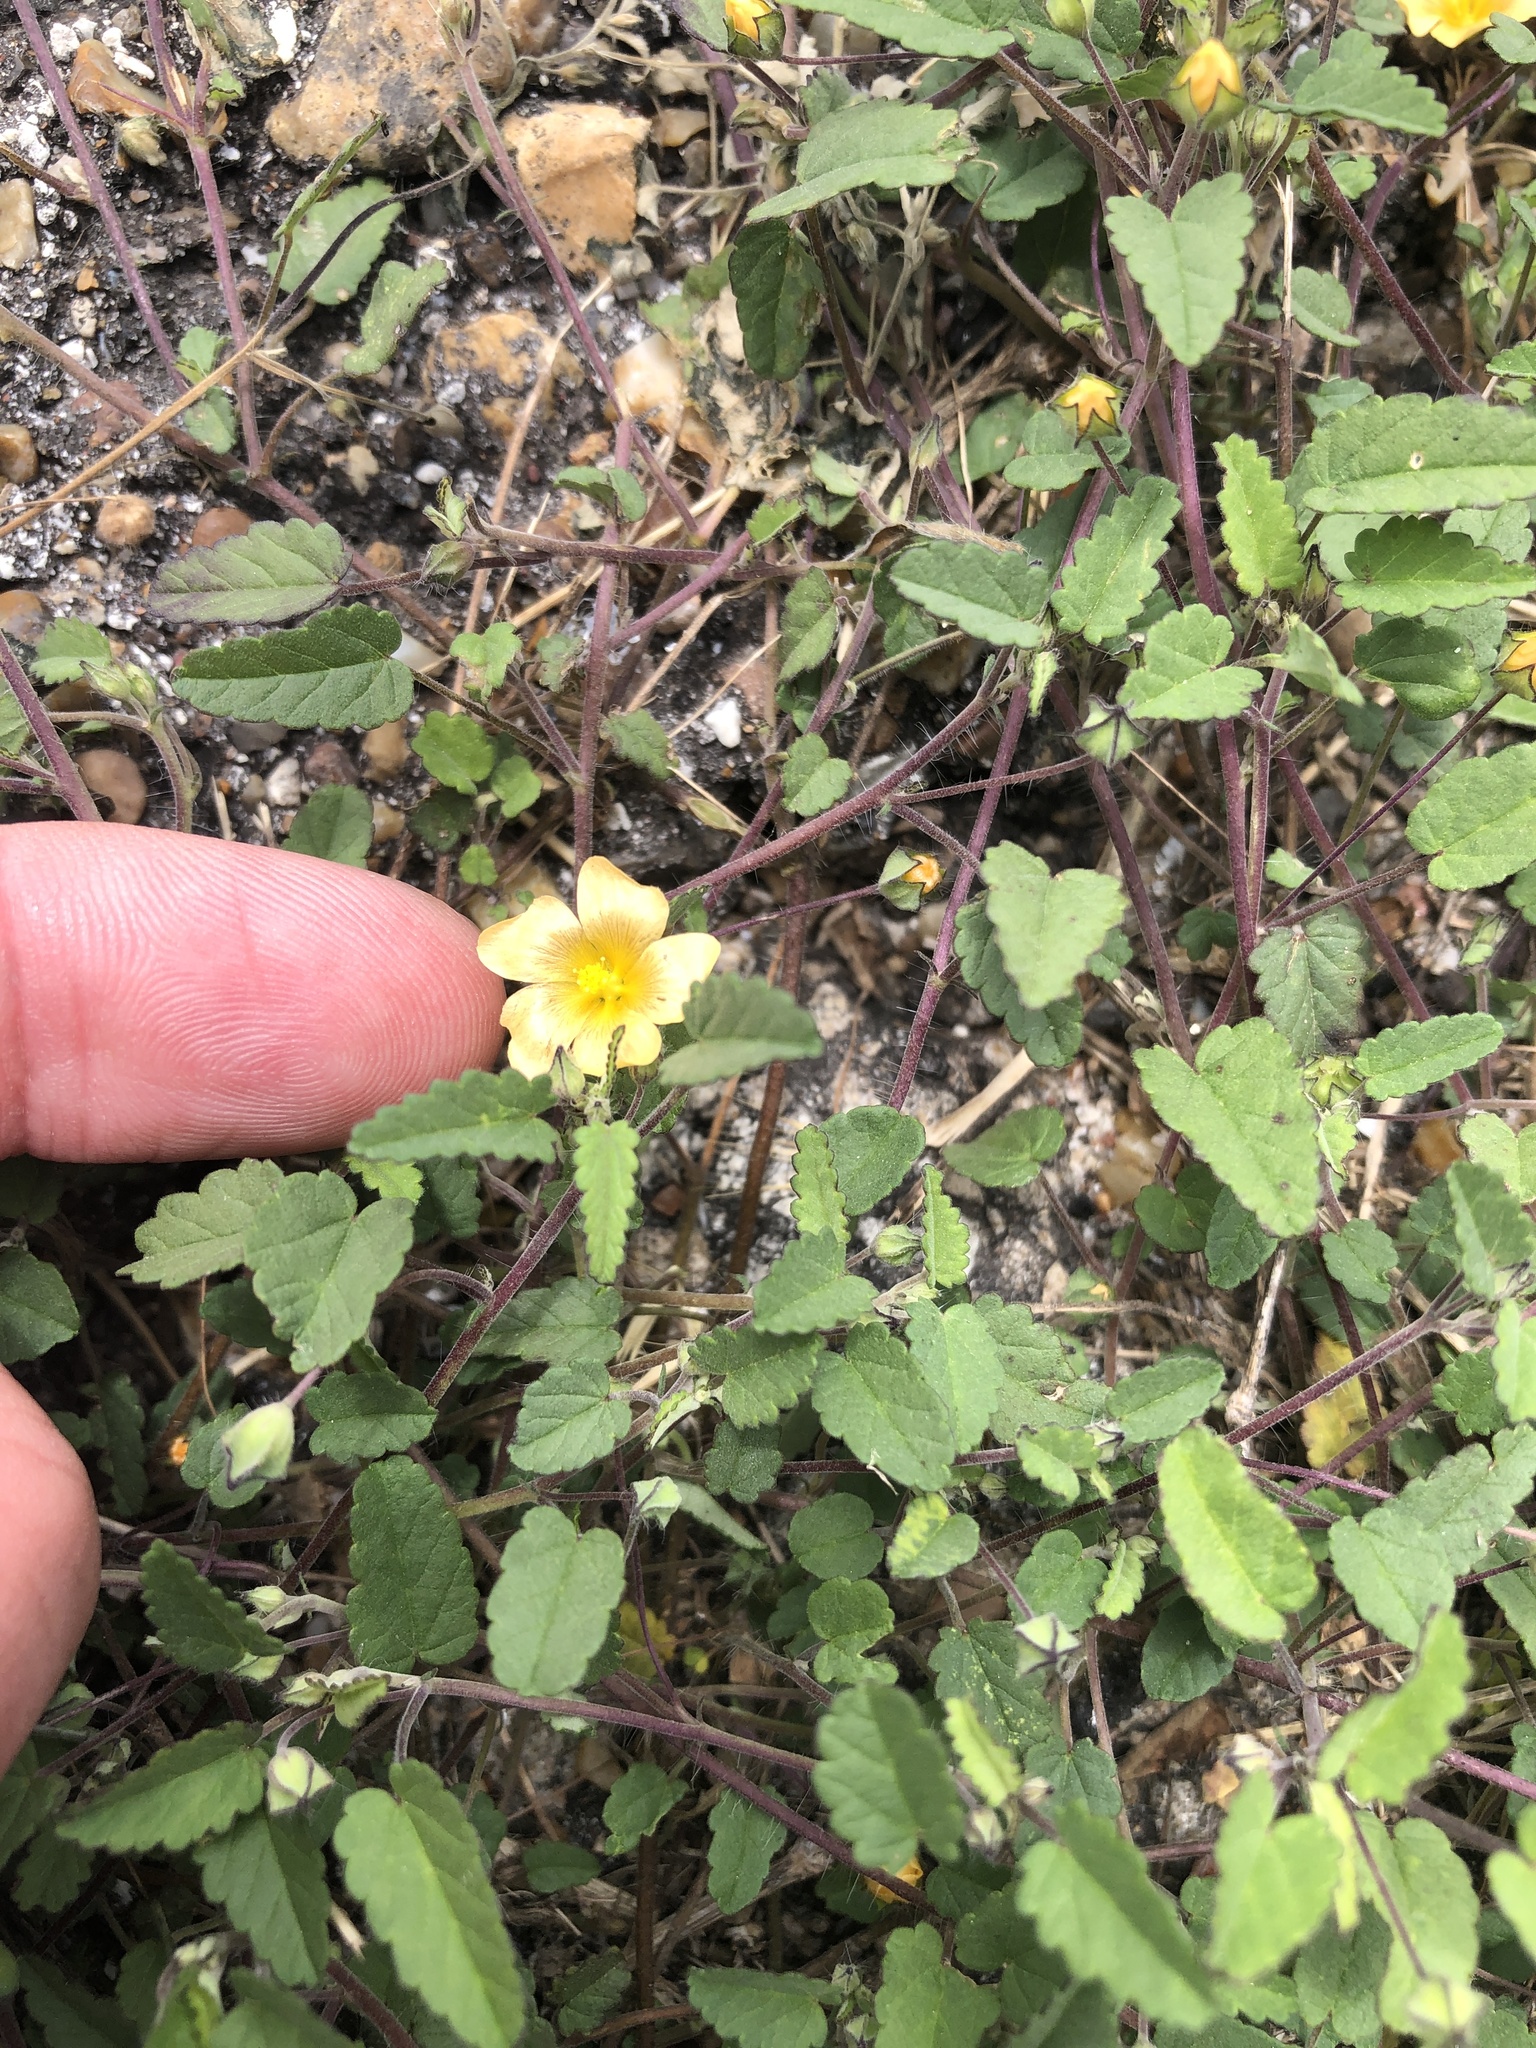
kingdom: Plantae
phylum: Tracheophyta
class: Magnoliopsida
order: Malvales
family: Malvaceae
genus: Sida
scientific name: Sida abutilifolia
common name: Spreading fanpetals
